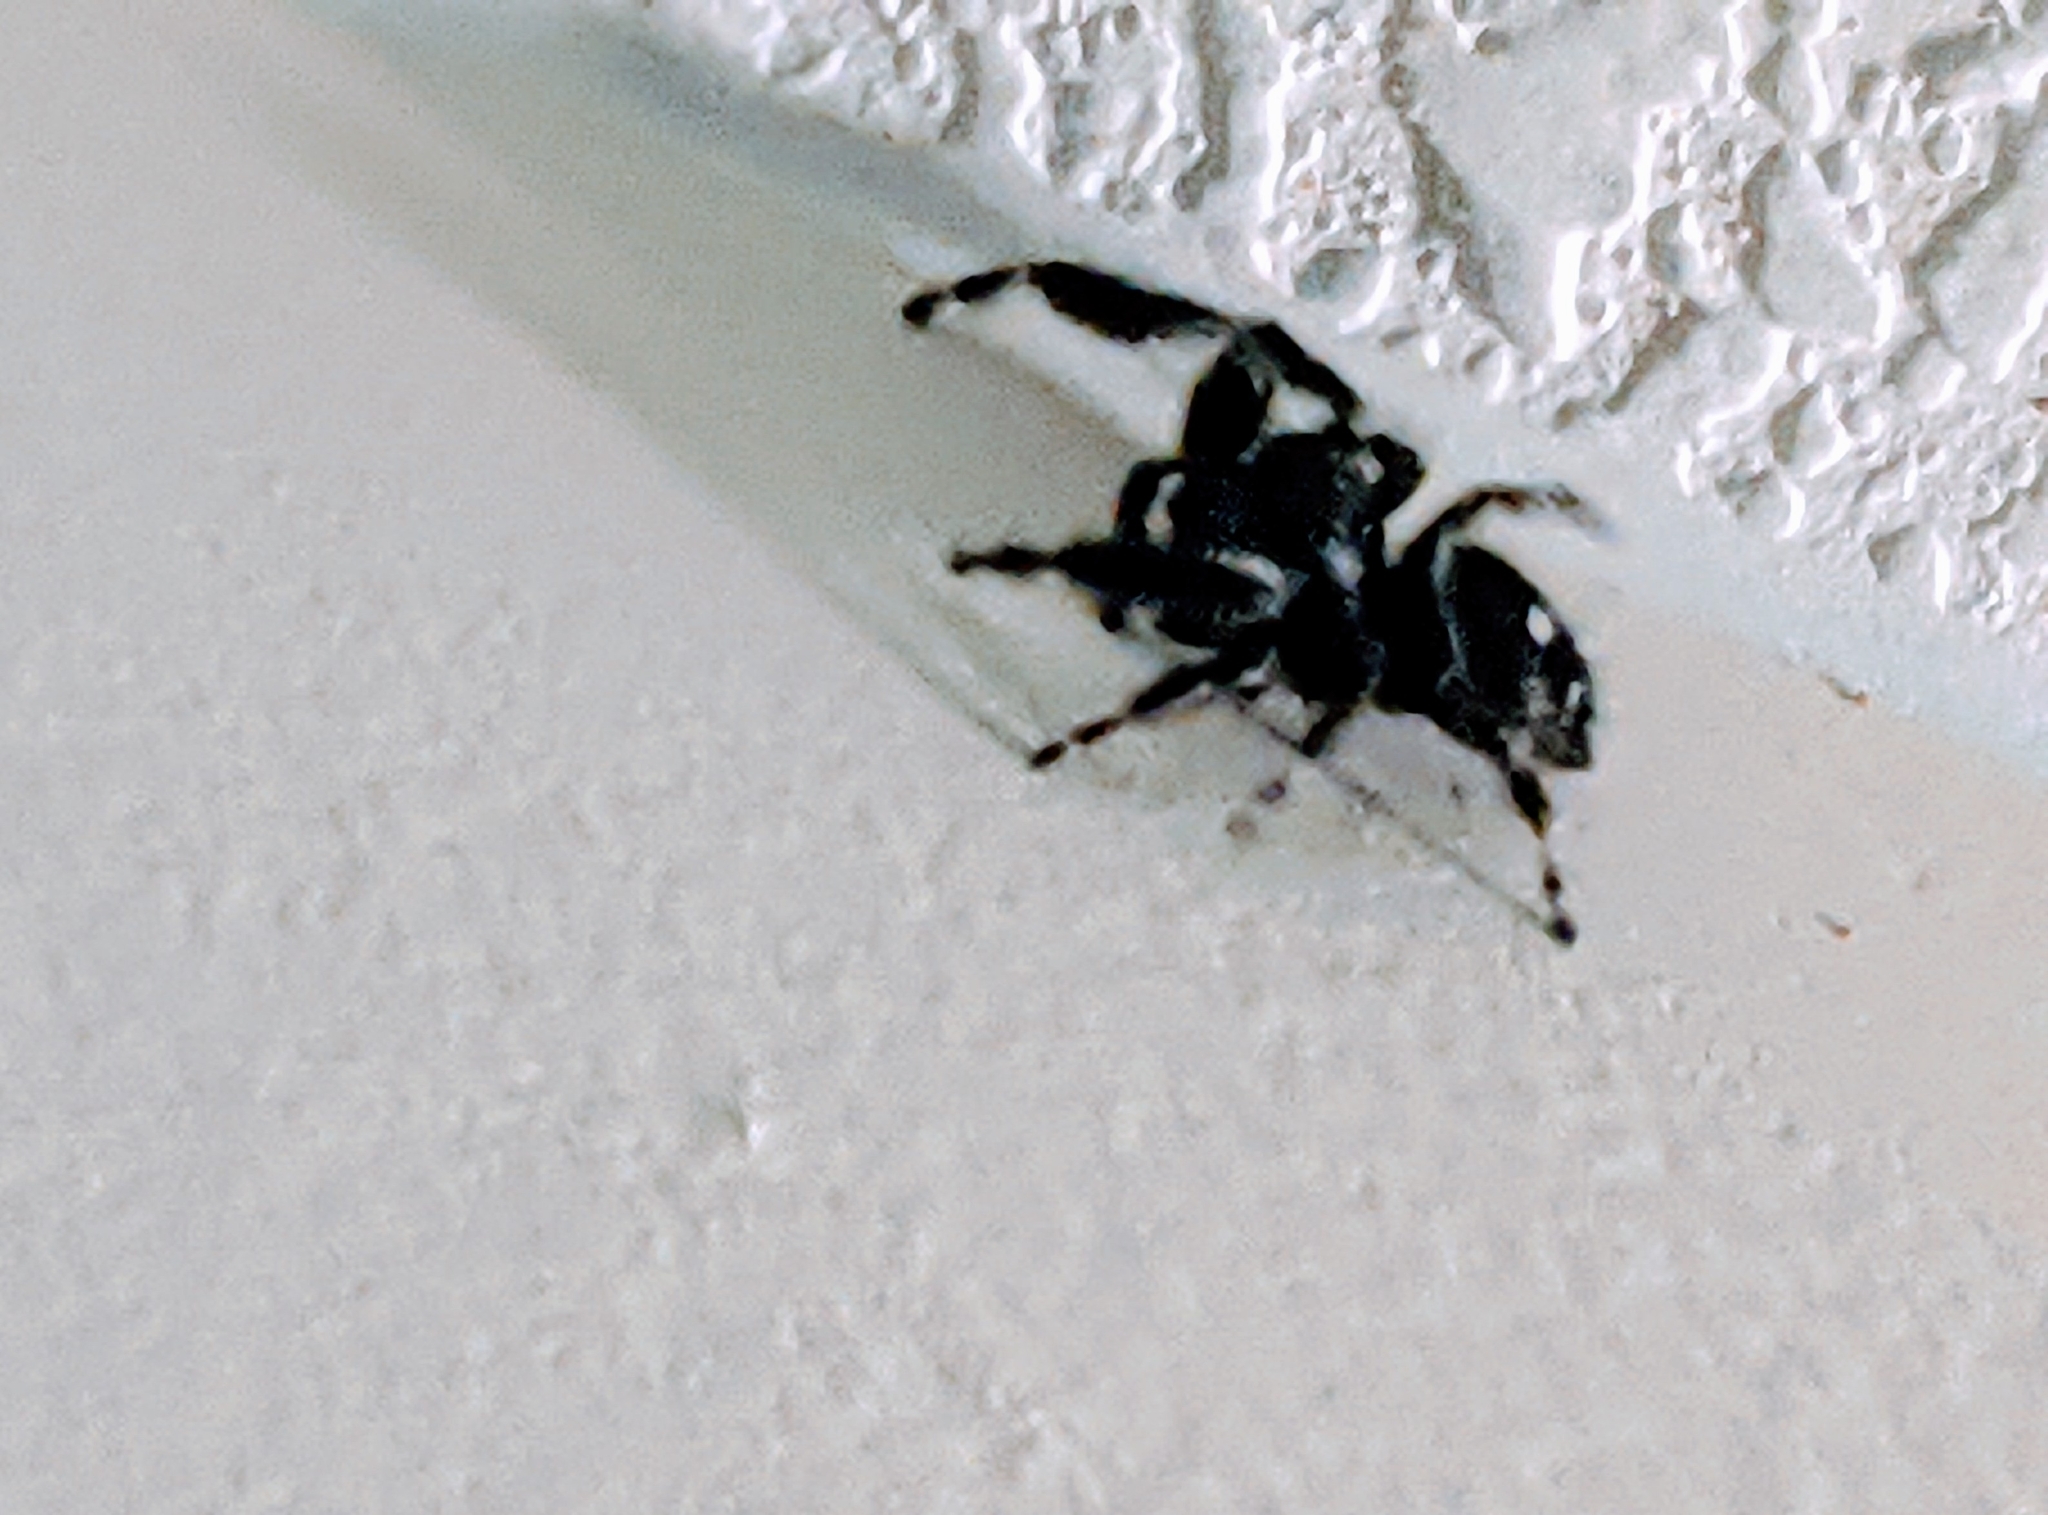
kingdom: Animalia
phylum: Arthropoda
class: Arachnida
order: Araneae
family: Salticidae
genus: Phidippus
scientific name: Phidippus audax
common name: Bold jumper
